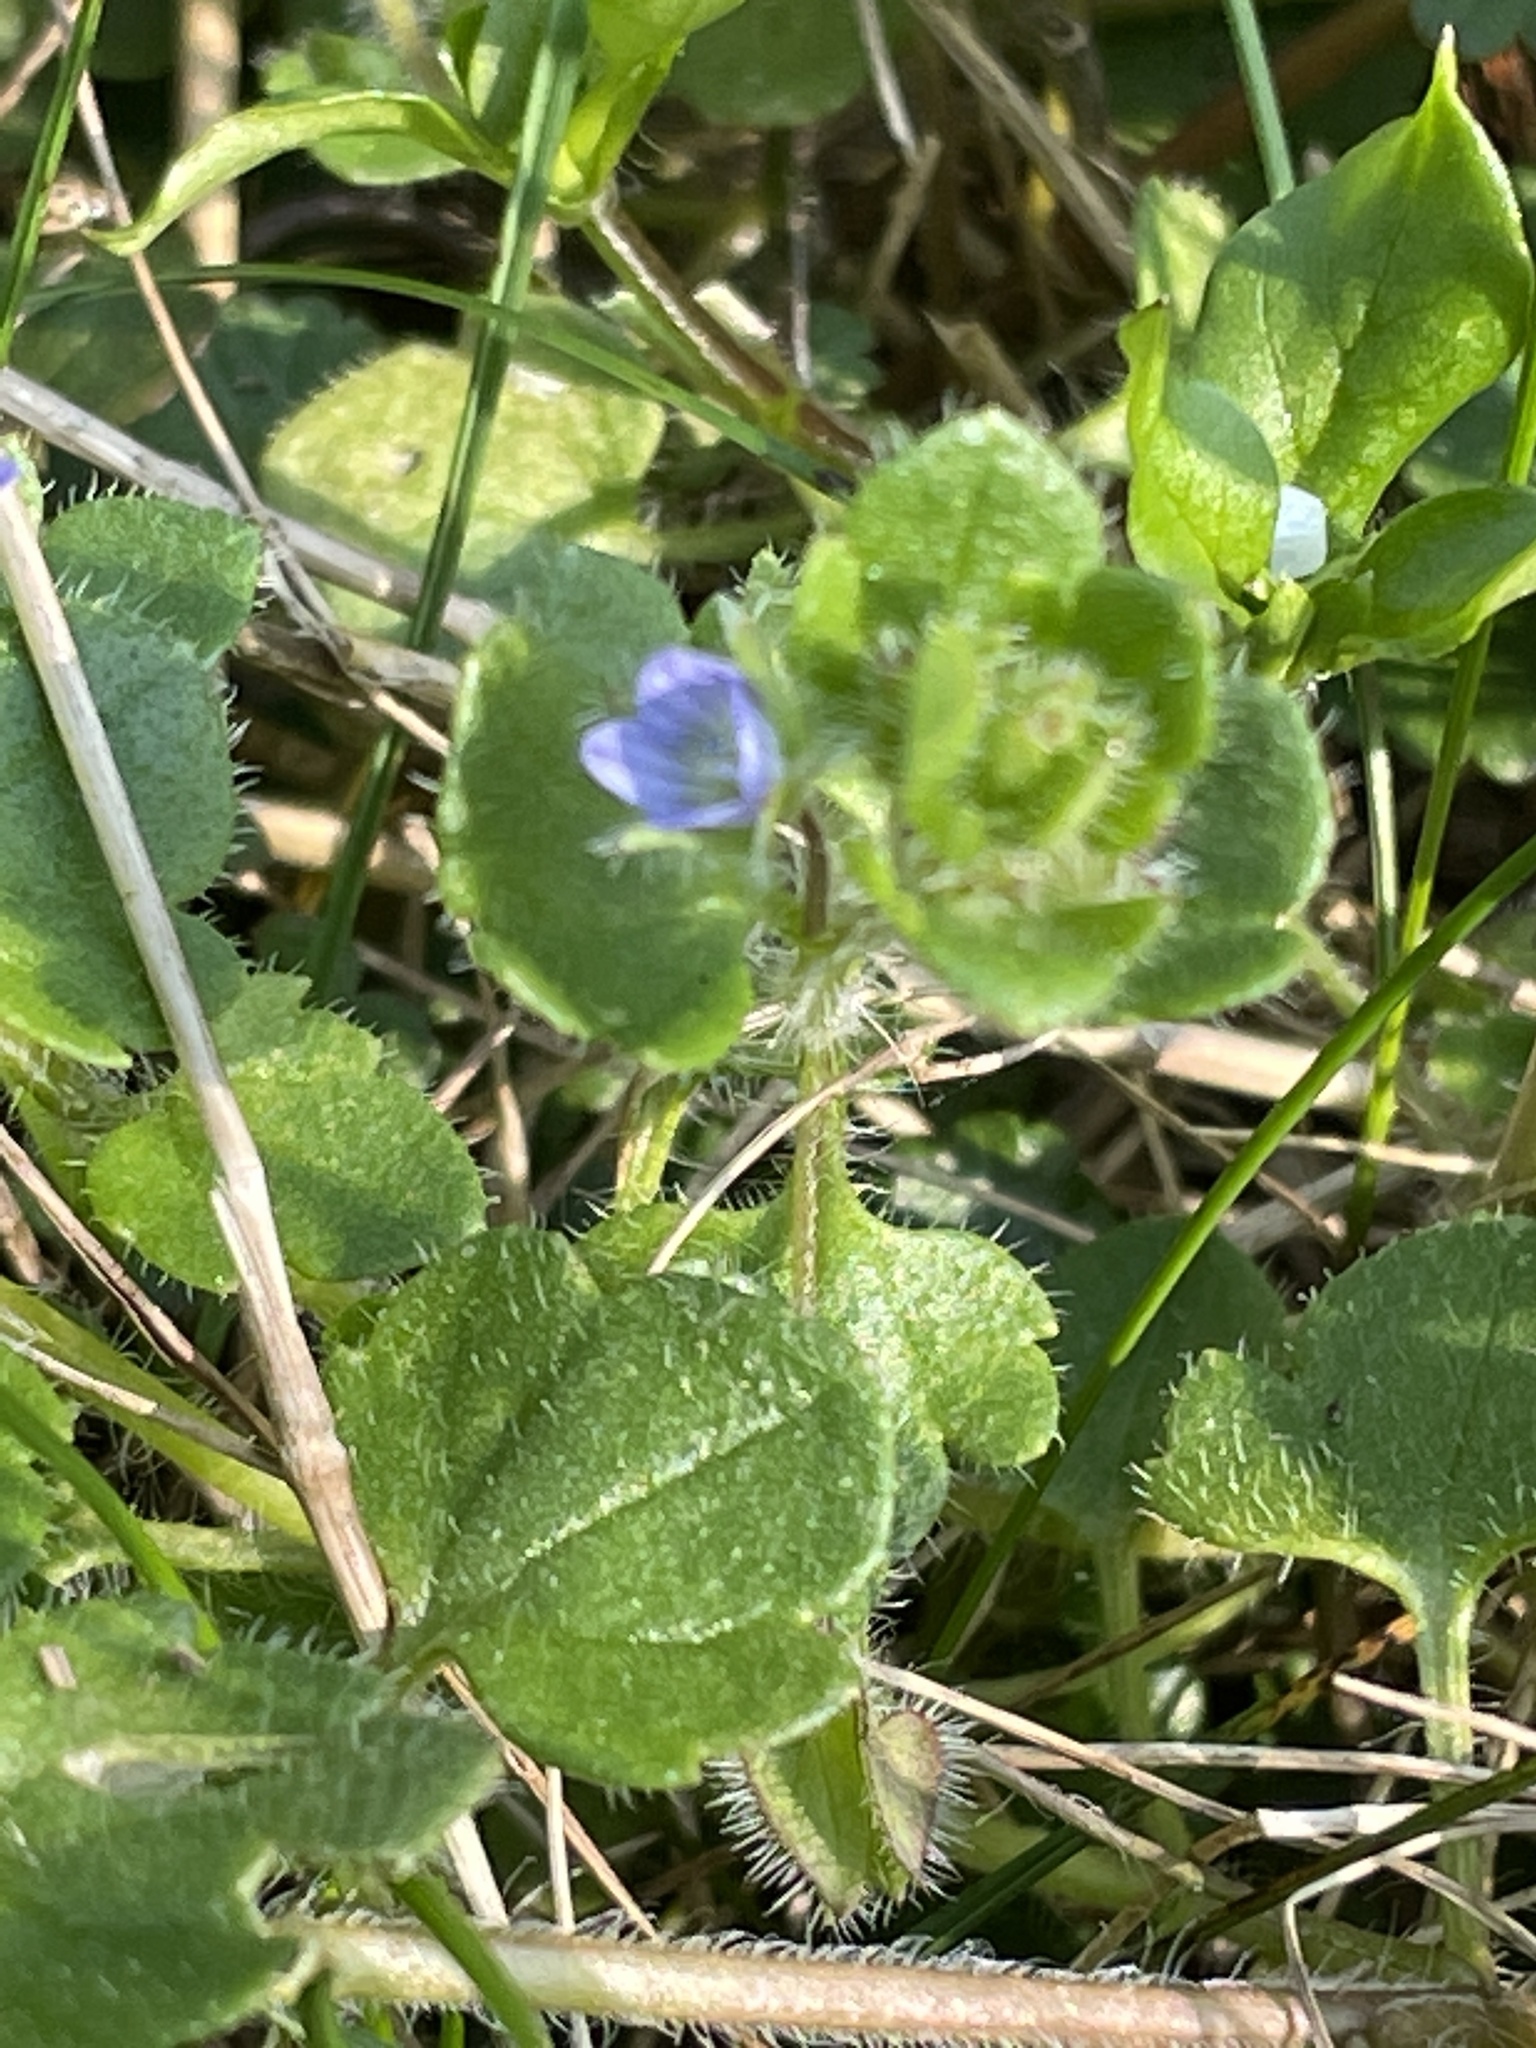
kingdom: Plantae
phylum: Tracheophyta
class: Magnoliopsida
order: Lamiales
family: Plantaginaceae
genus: Veronica
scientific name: Veronica hederifolia
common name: Ivy-leaved speedwell
